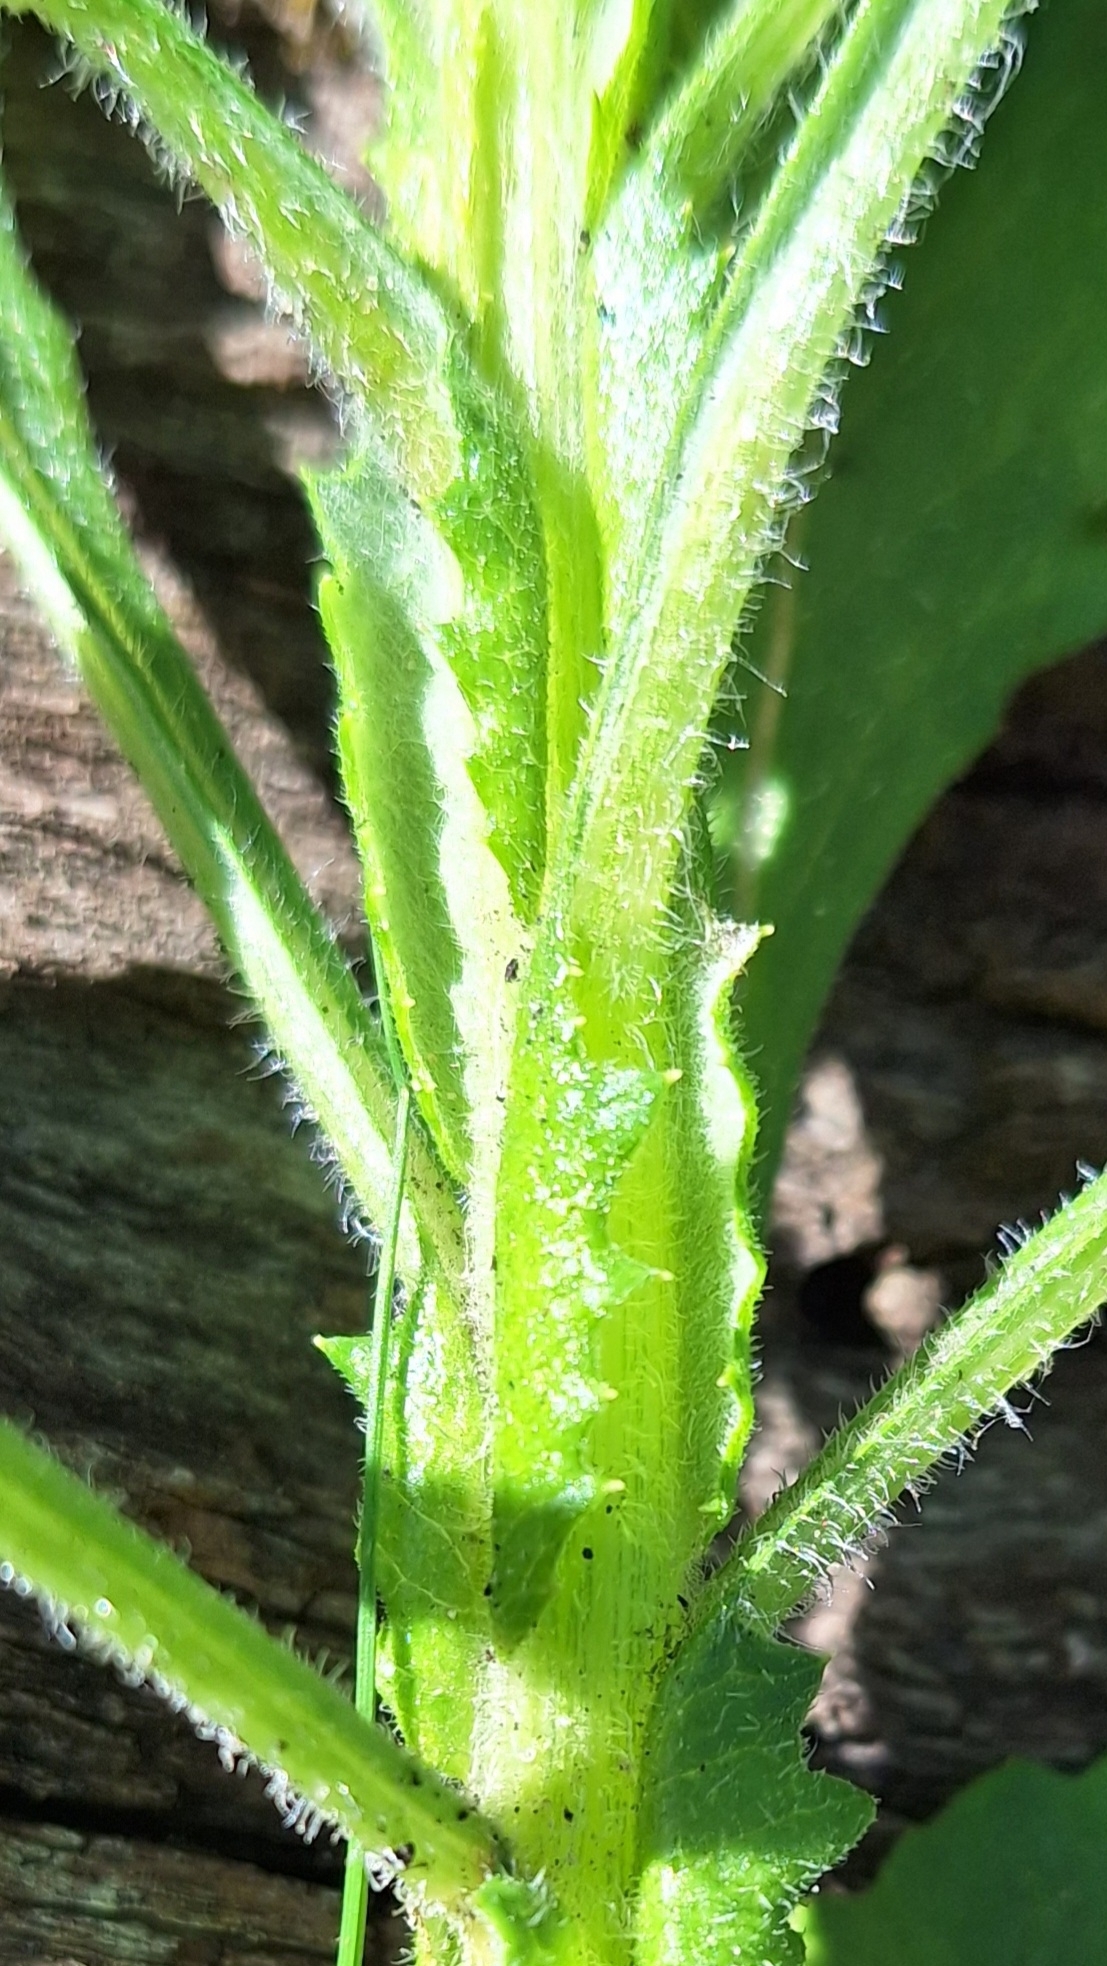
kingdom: Plantae
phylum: Tracheophyta
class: Magnoliopsida
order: Asterales
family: Asteraceae
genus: Senecio
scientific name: Senecio pterophorus
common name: Shoddy ragwort
